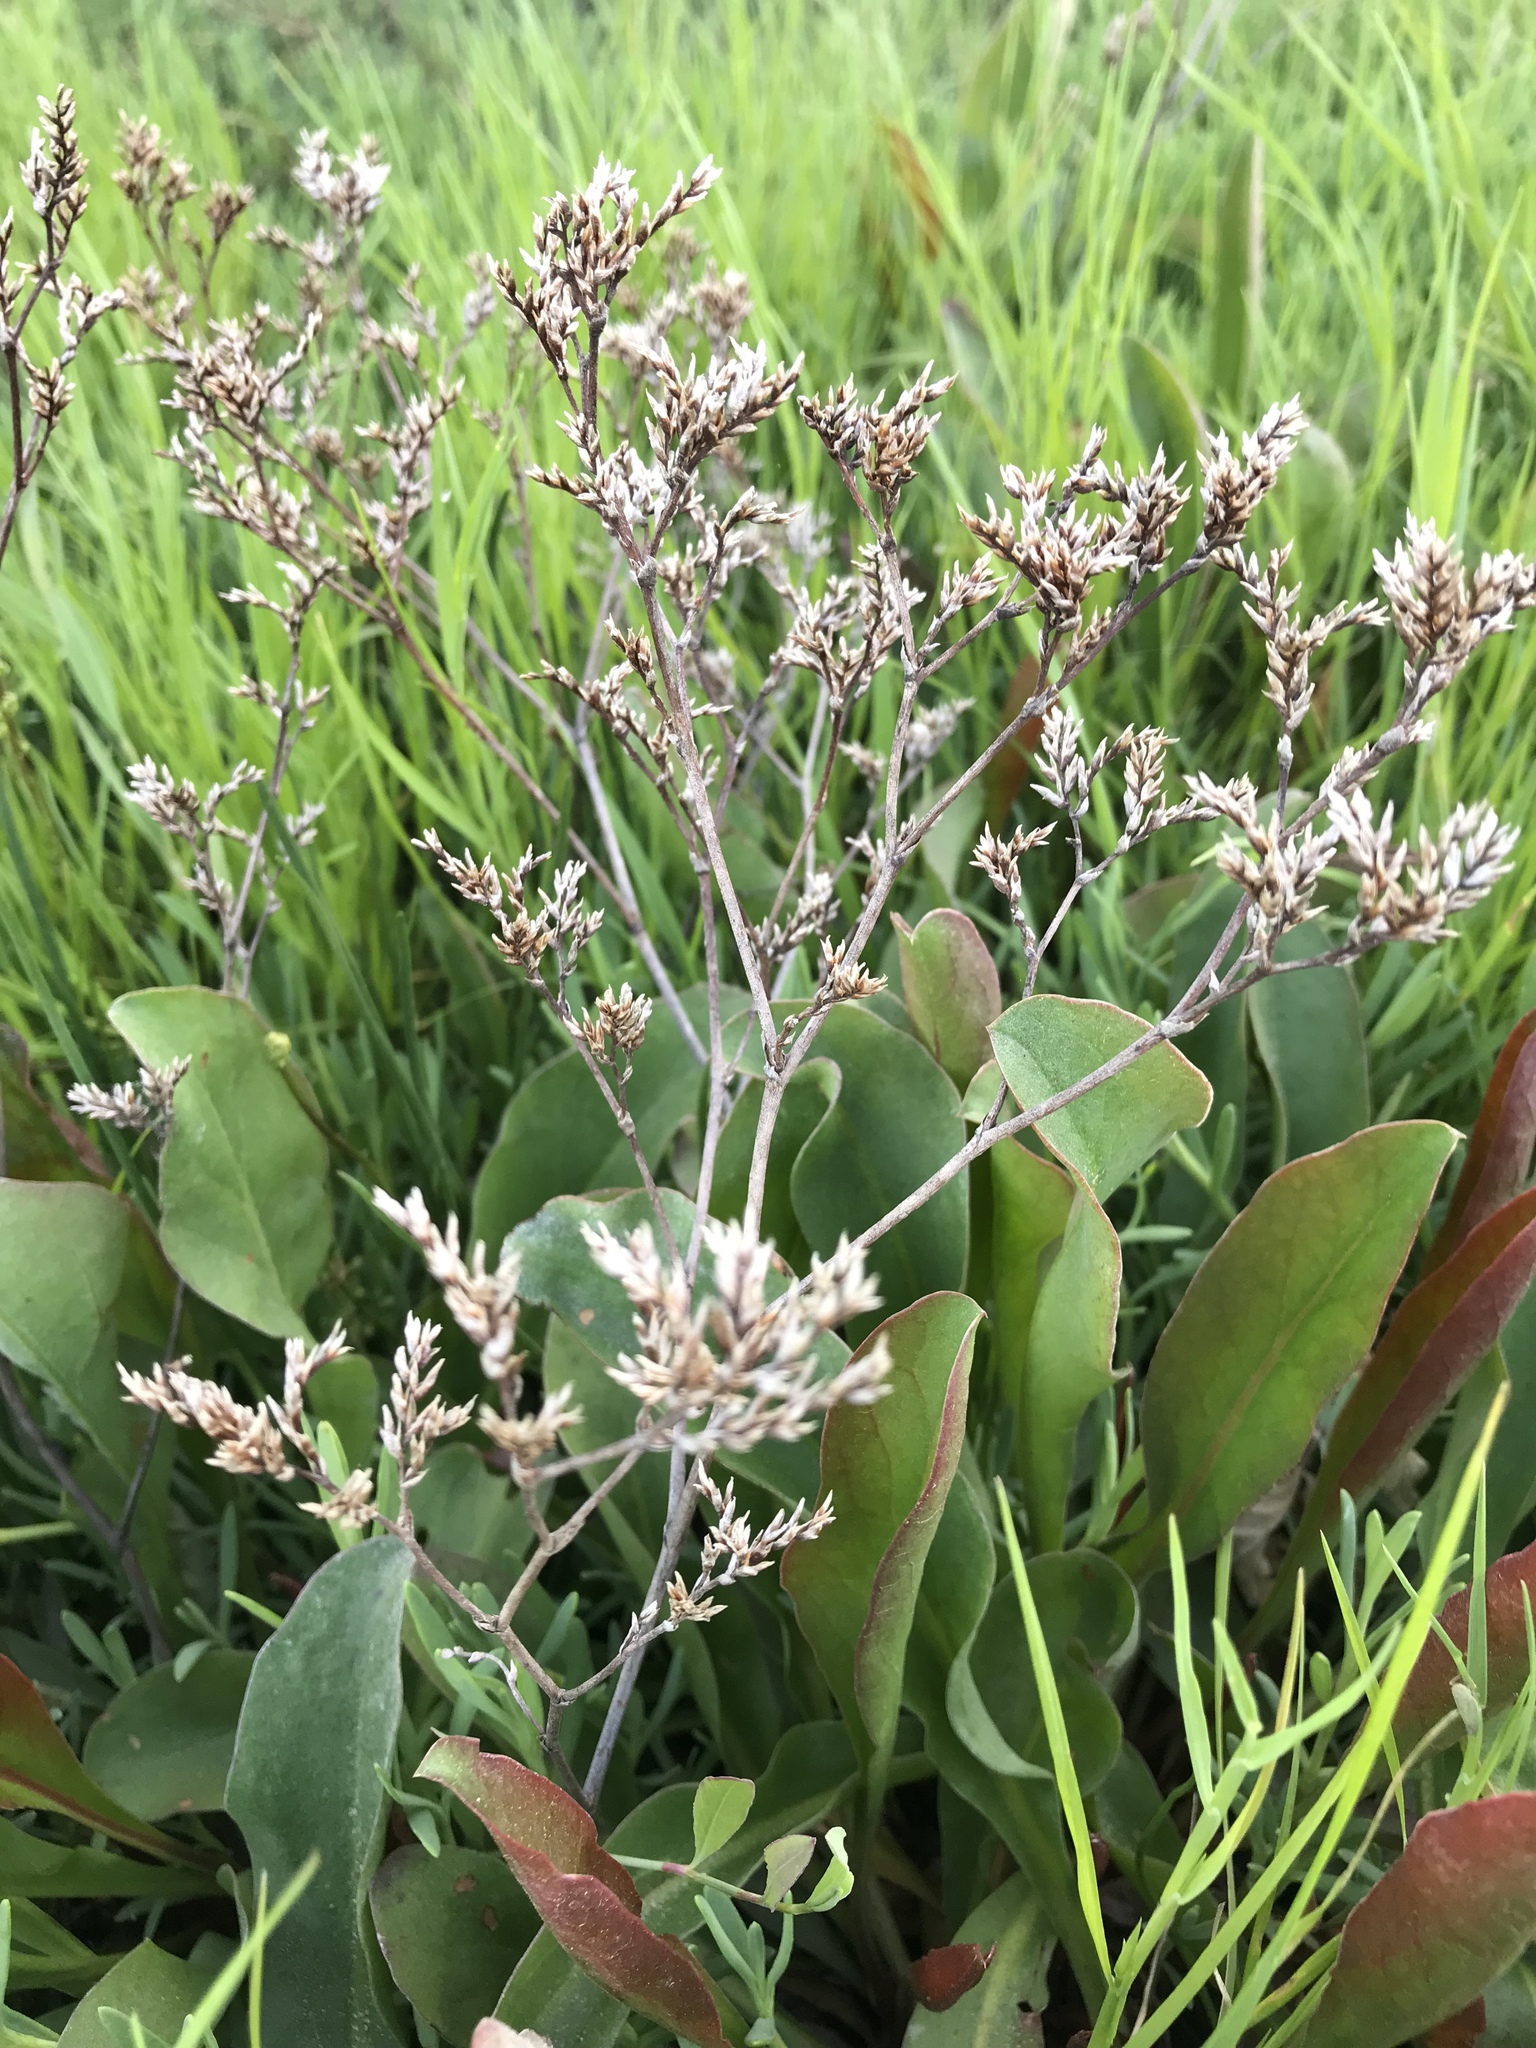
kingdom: Plantae
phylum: Tracheophyta
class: Magnoliopsida
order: Caryophyllales
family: Plumbaginaceae
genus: Limonium
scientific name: Limonium californicum
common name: Marsh-rosemary
